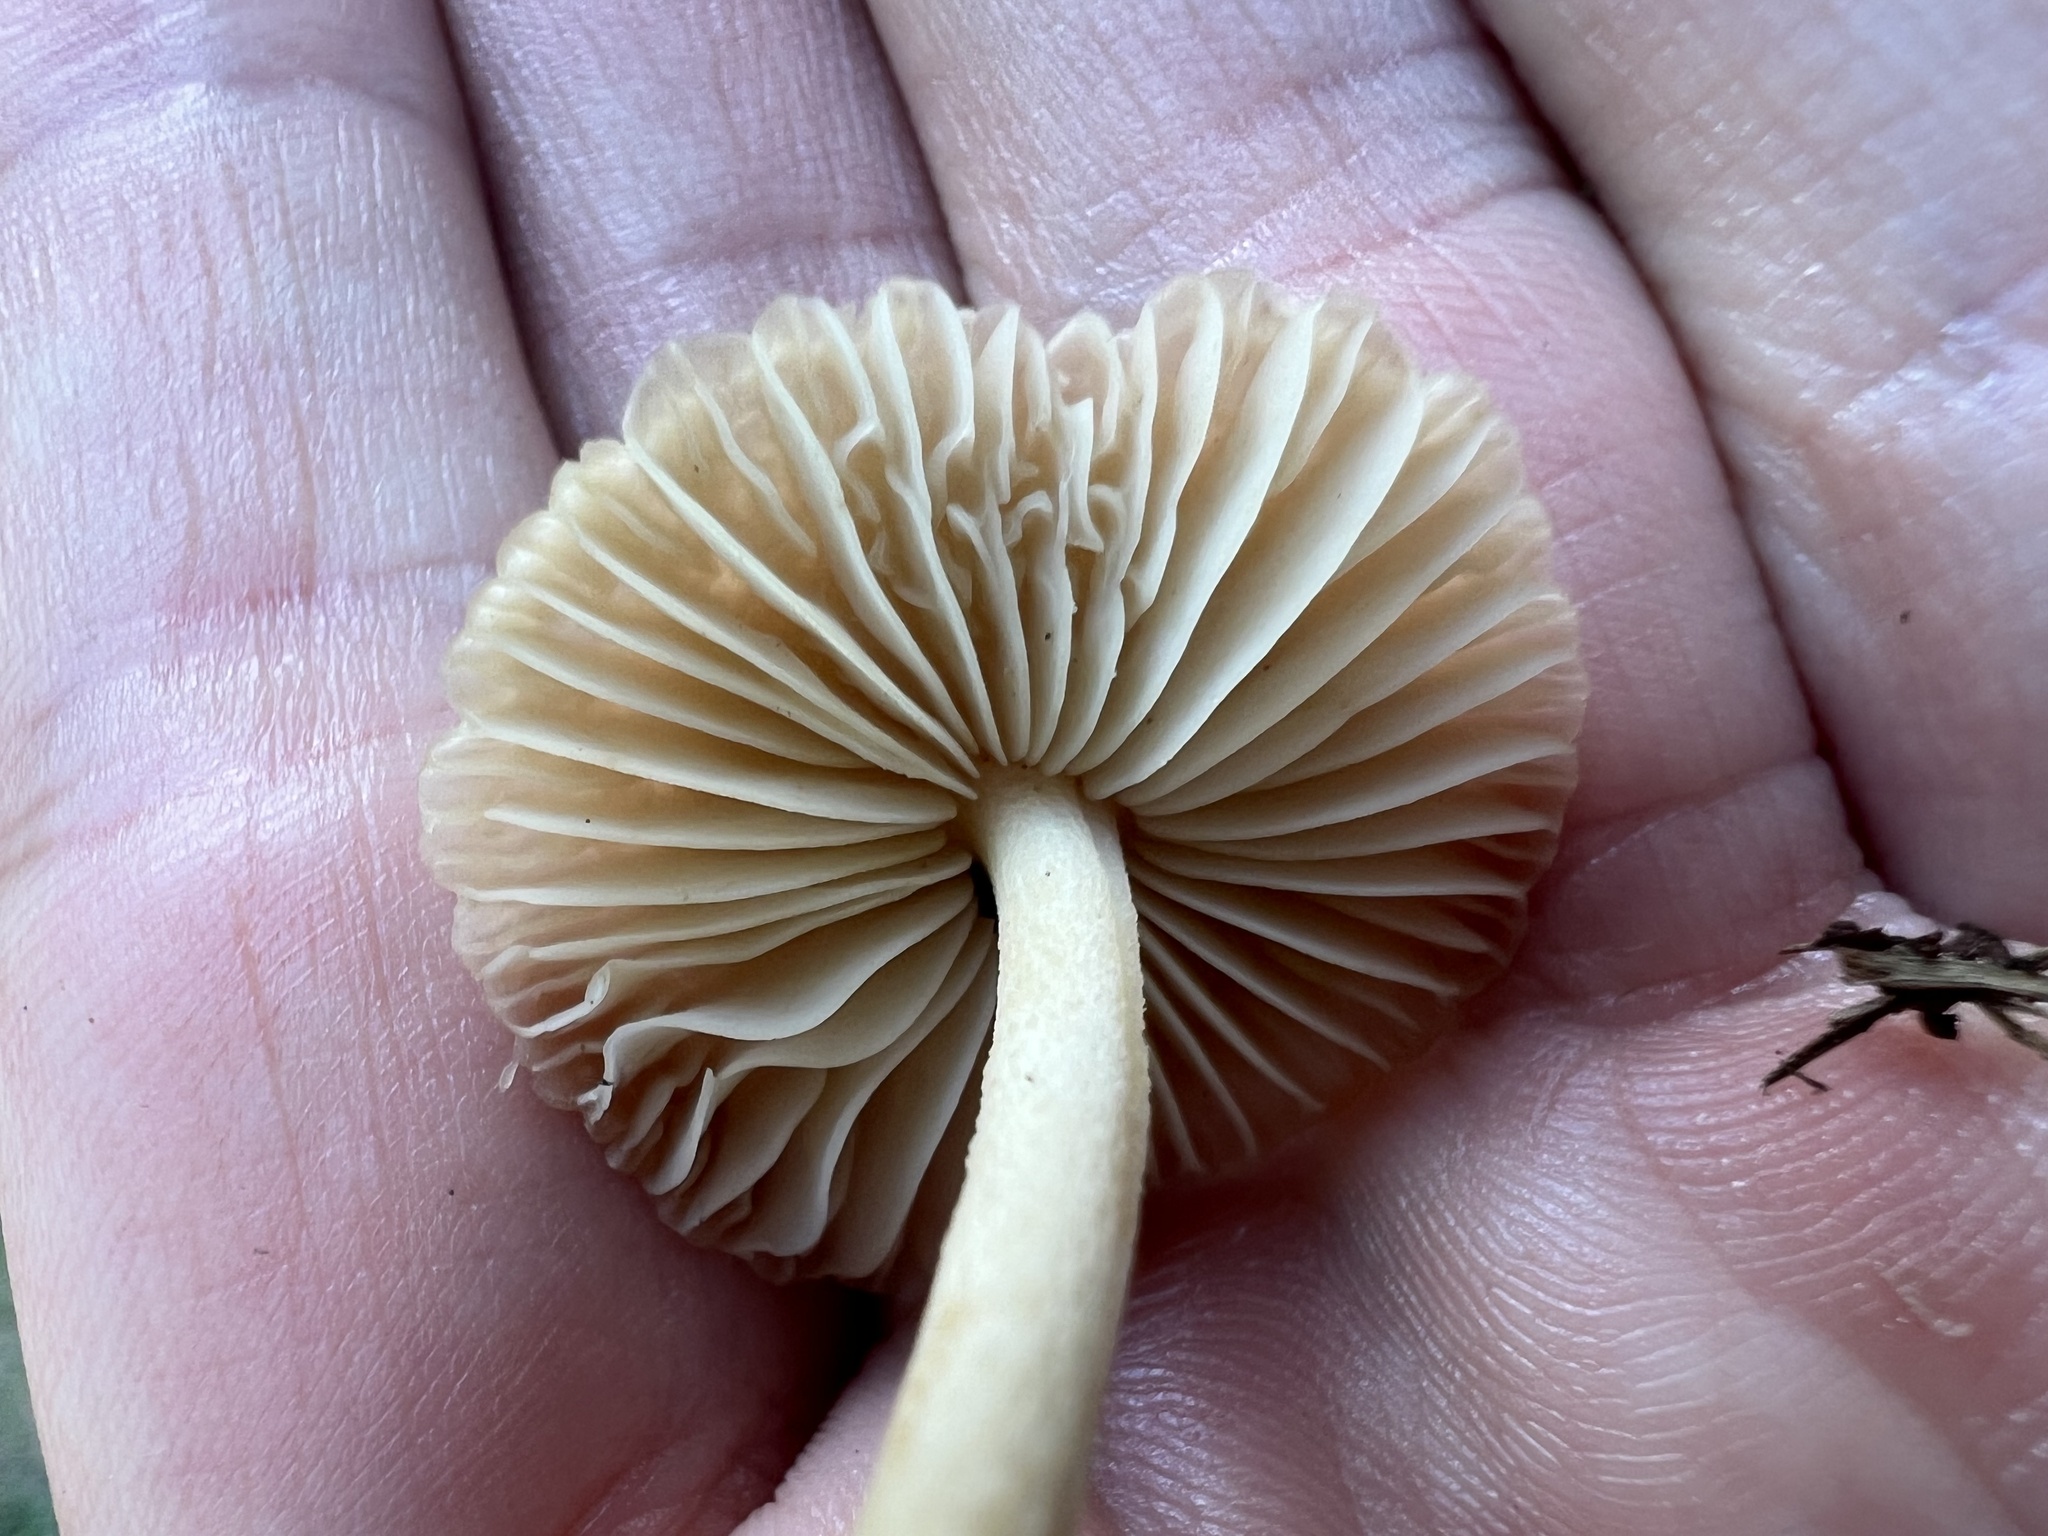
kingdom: Fungi
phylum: Basidiomycota
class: Agaricomycetes
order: Agaricales
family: Marasmiaceae
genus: Marasmius
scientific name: Marasmius oreades
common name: Fairy ring champignon
